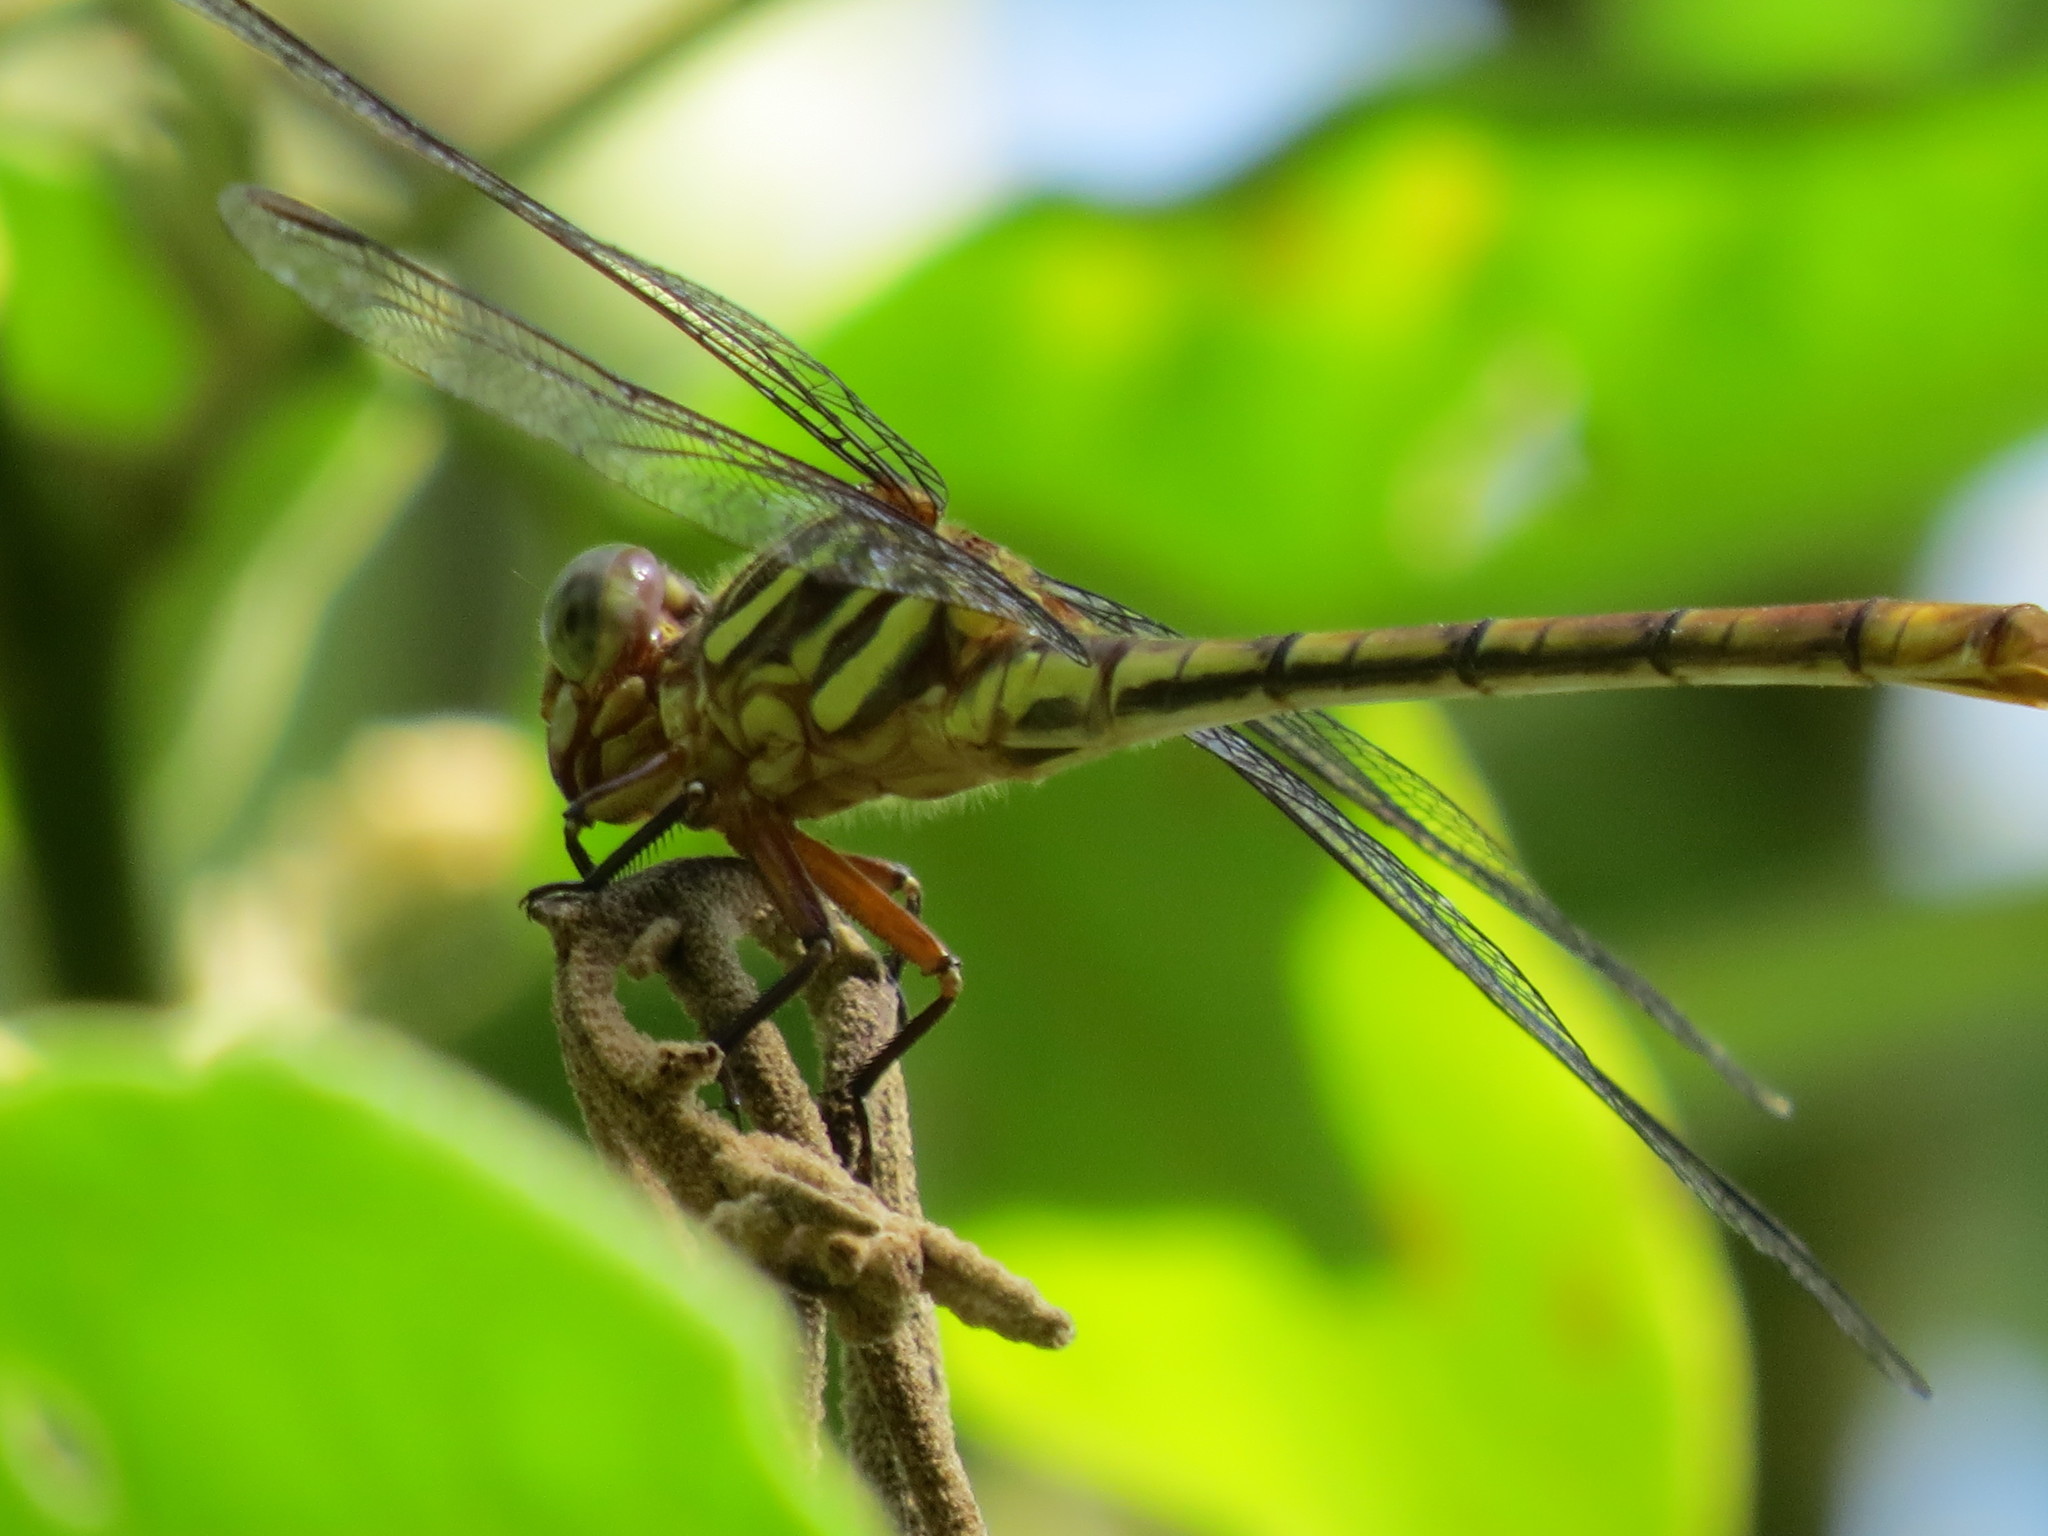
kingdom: Animalia
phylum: Arthropoda
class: Insecta
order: Odonata
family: Gomphidae
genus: Aphylla
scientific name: Aphylla angustifolia
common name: Broad-striped forceptail
